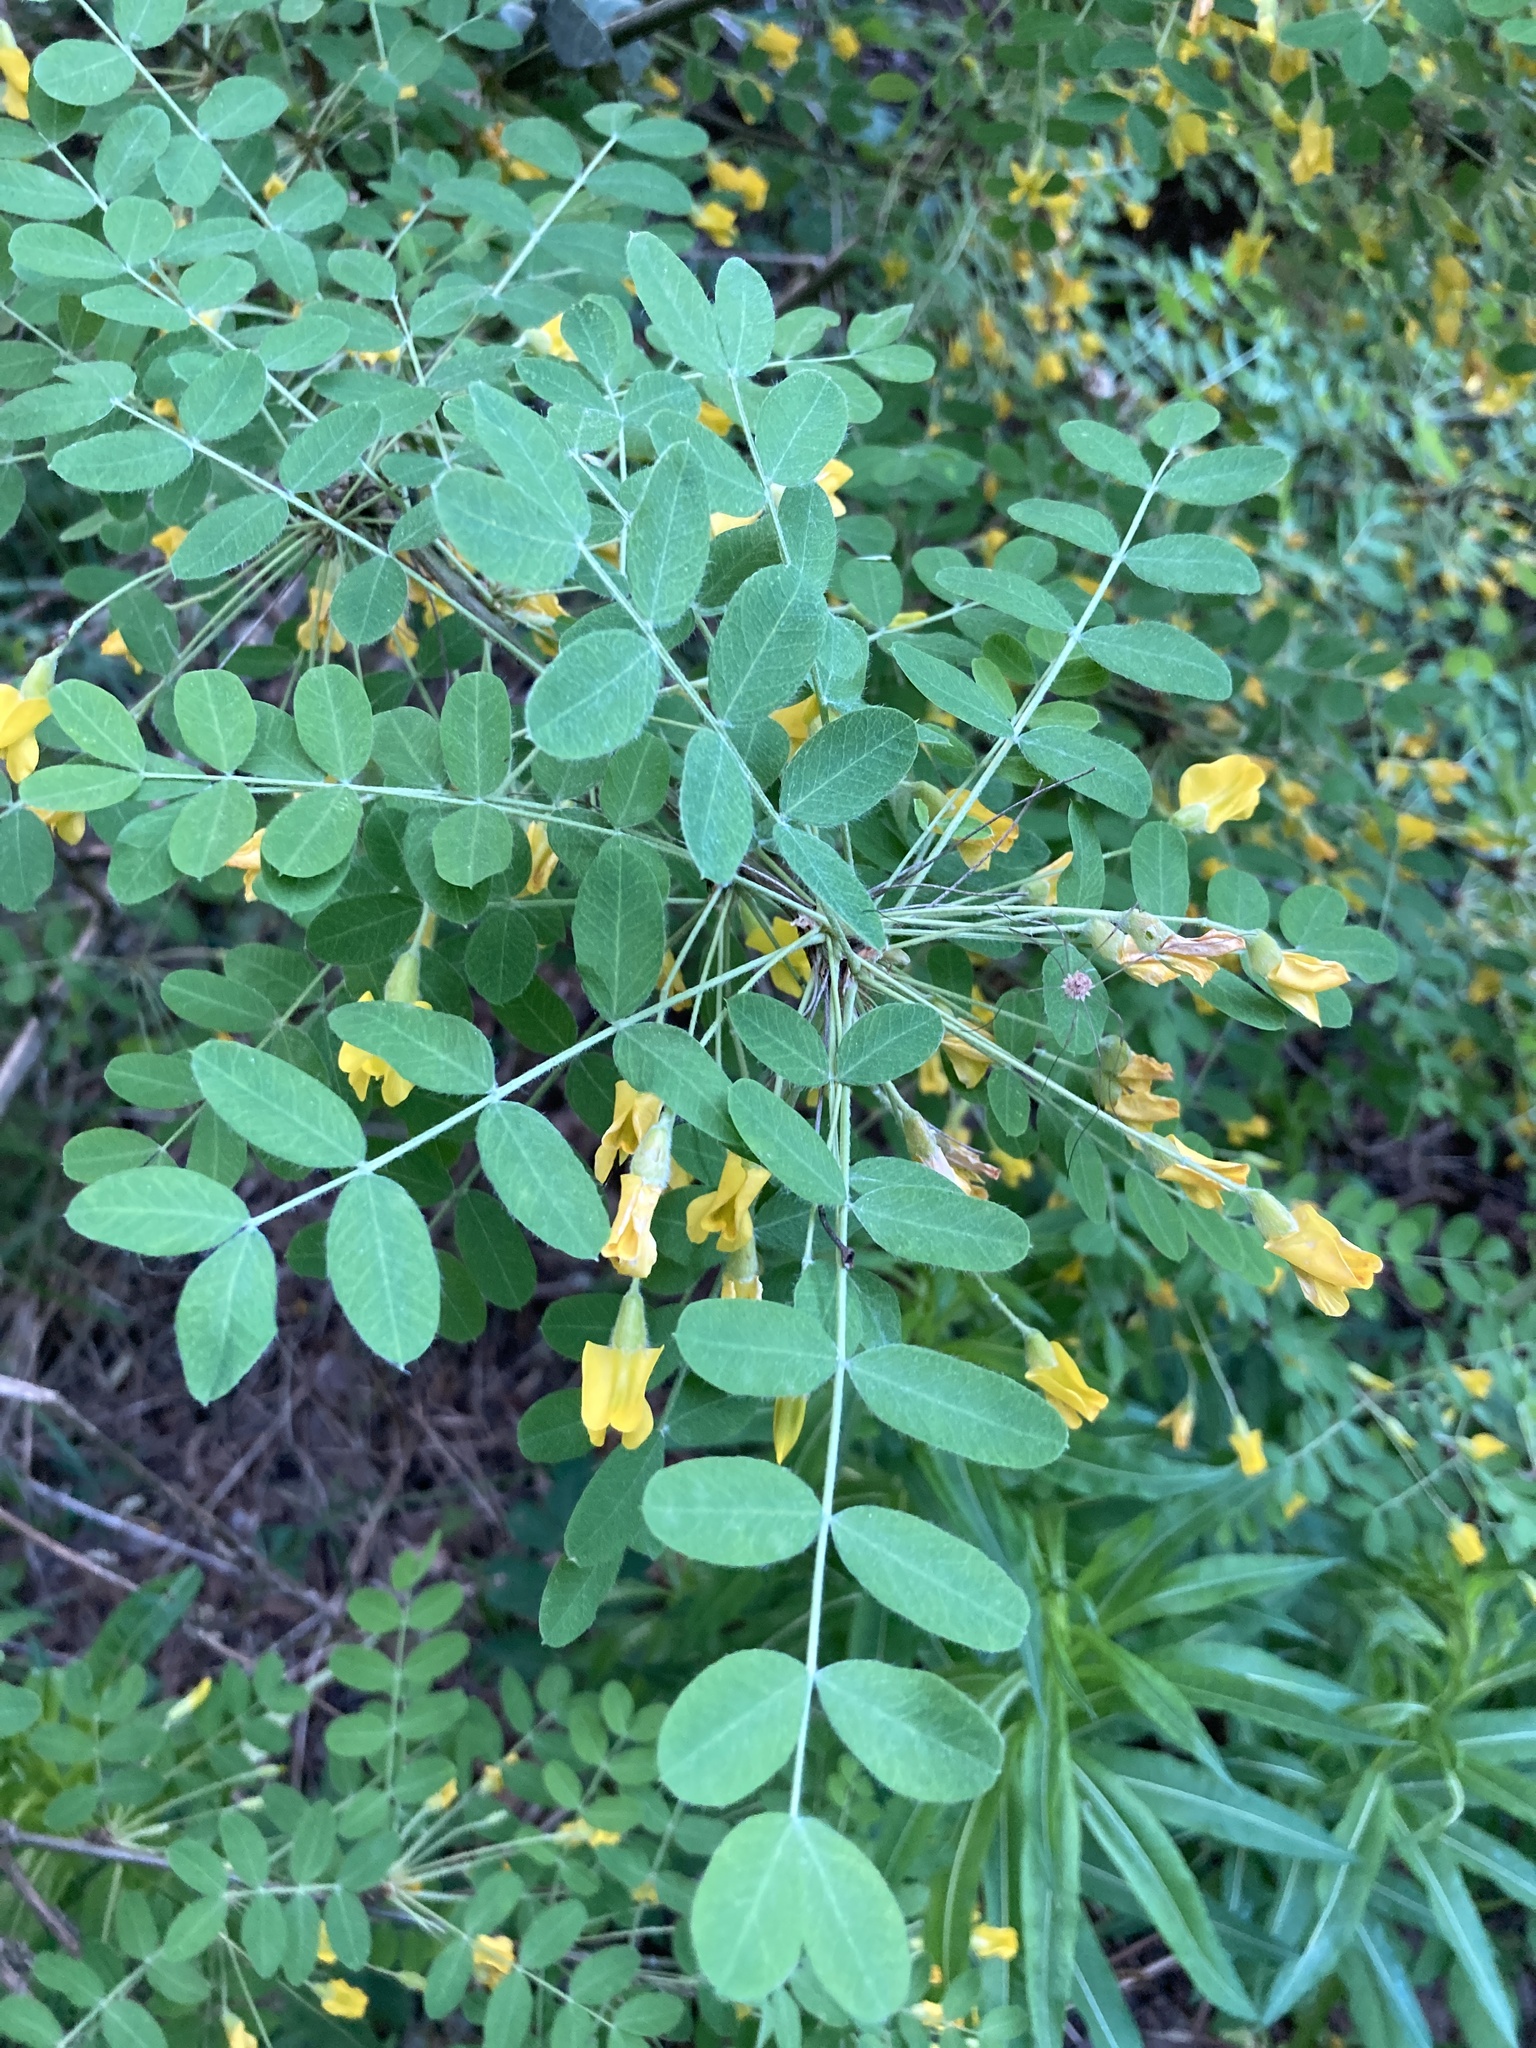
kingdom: Plantae
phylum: Tracheophyta
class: Magnoliopsida
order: Fabales
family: Fabaceae
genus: Caragana
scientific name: Caragana arborescens
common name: Siberian peashrub
